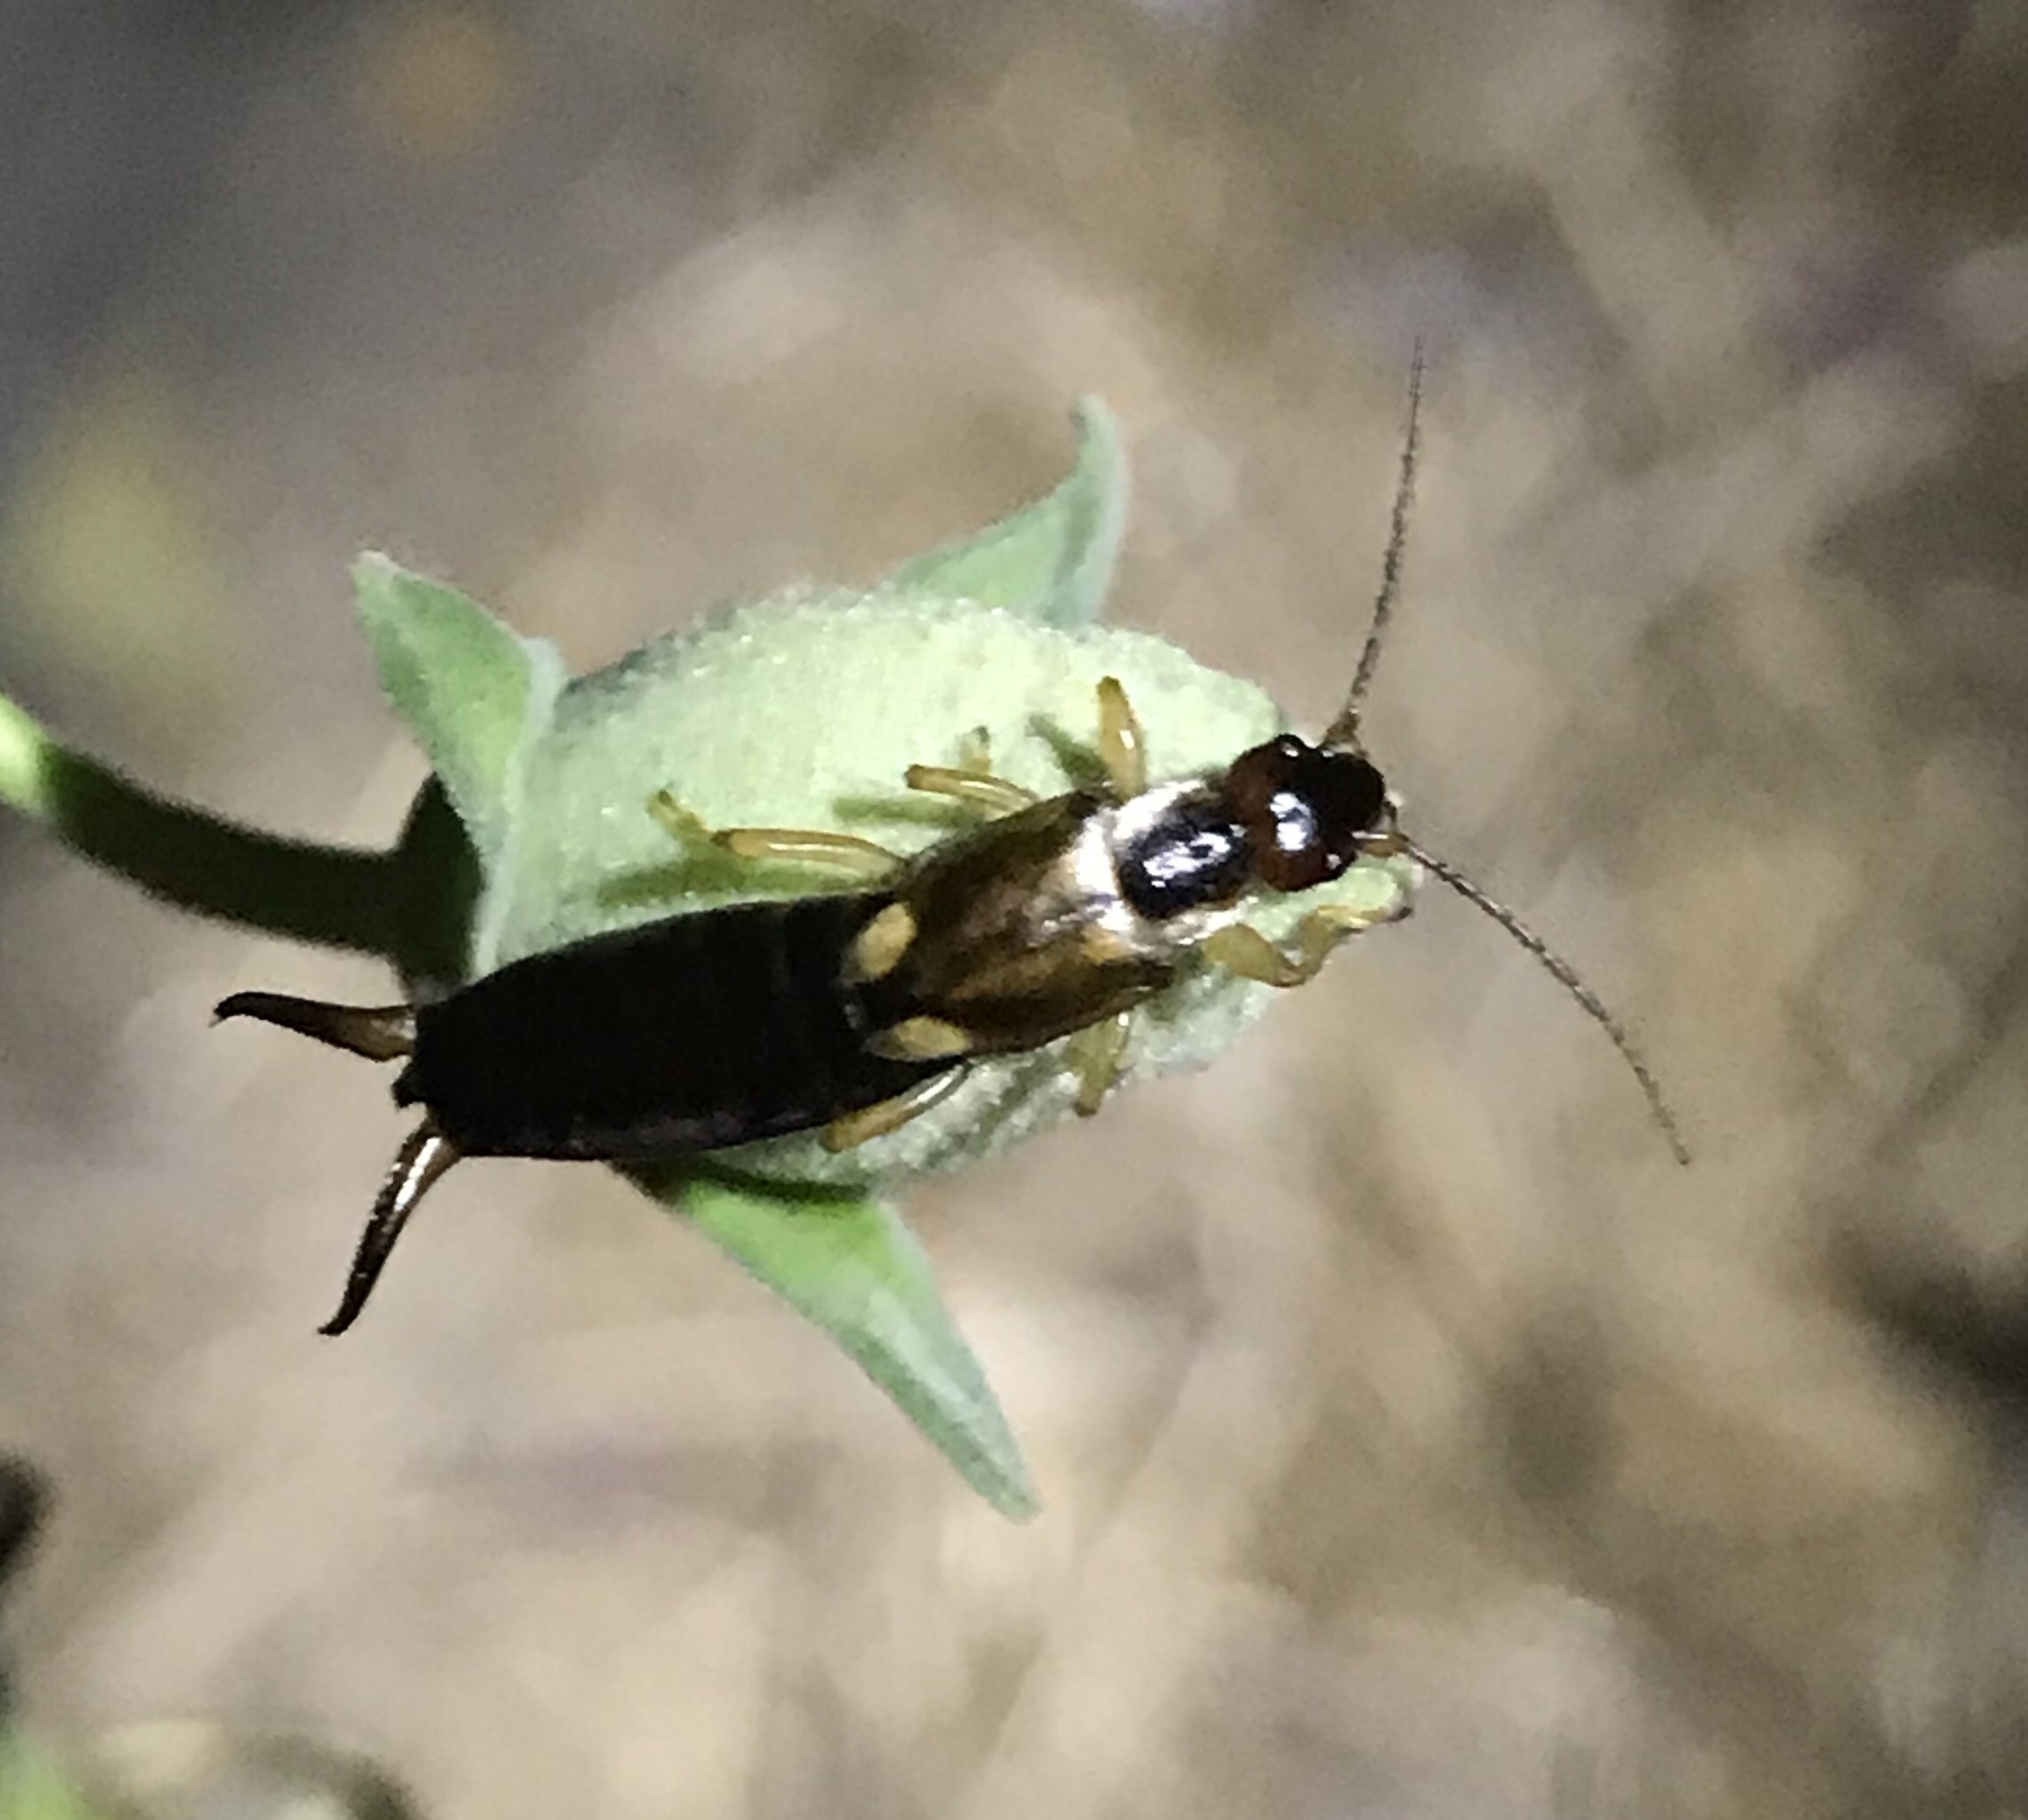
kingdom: Animalia
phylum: Arthropoda
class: Insecta
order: Dermaptera
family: Forficulidae
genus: Forficula
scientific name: Forficula
